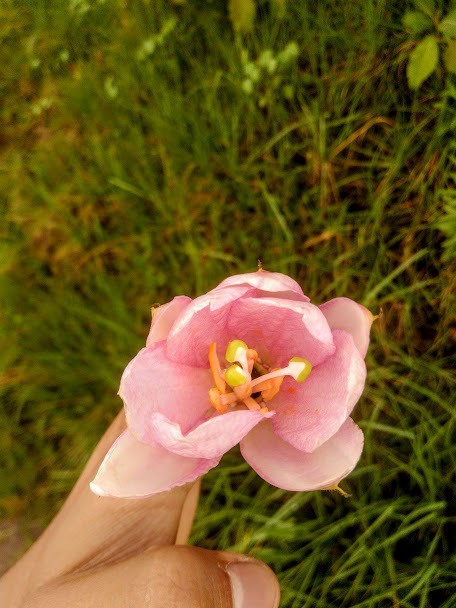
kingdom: Plantae
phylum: Tracheophyta
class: Magnoliopsida
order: Malpighiales
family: Passifloraceae
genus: Passiflora
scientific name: Passiflora tarminiana
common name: Banana poka
